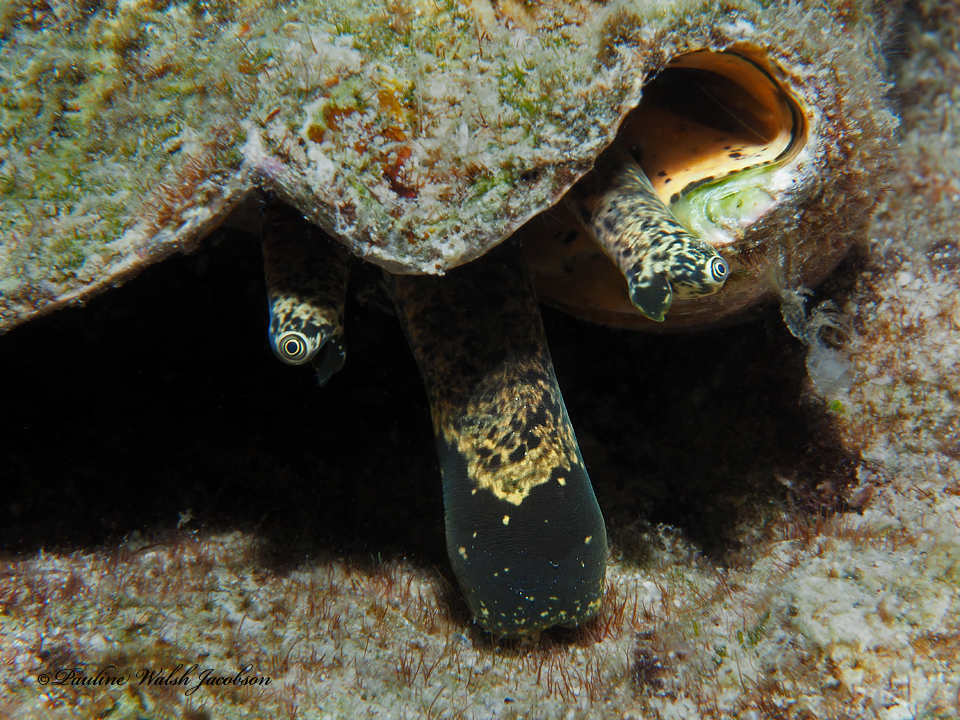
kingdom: Animalia
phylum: Mollusca
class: Gastropoda
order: Littorinimorpha
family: Strombidae
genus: Aliger
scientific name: Aliger gigas
